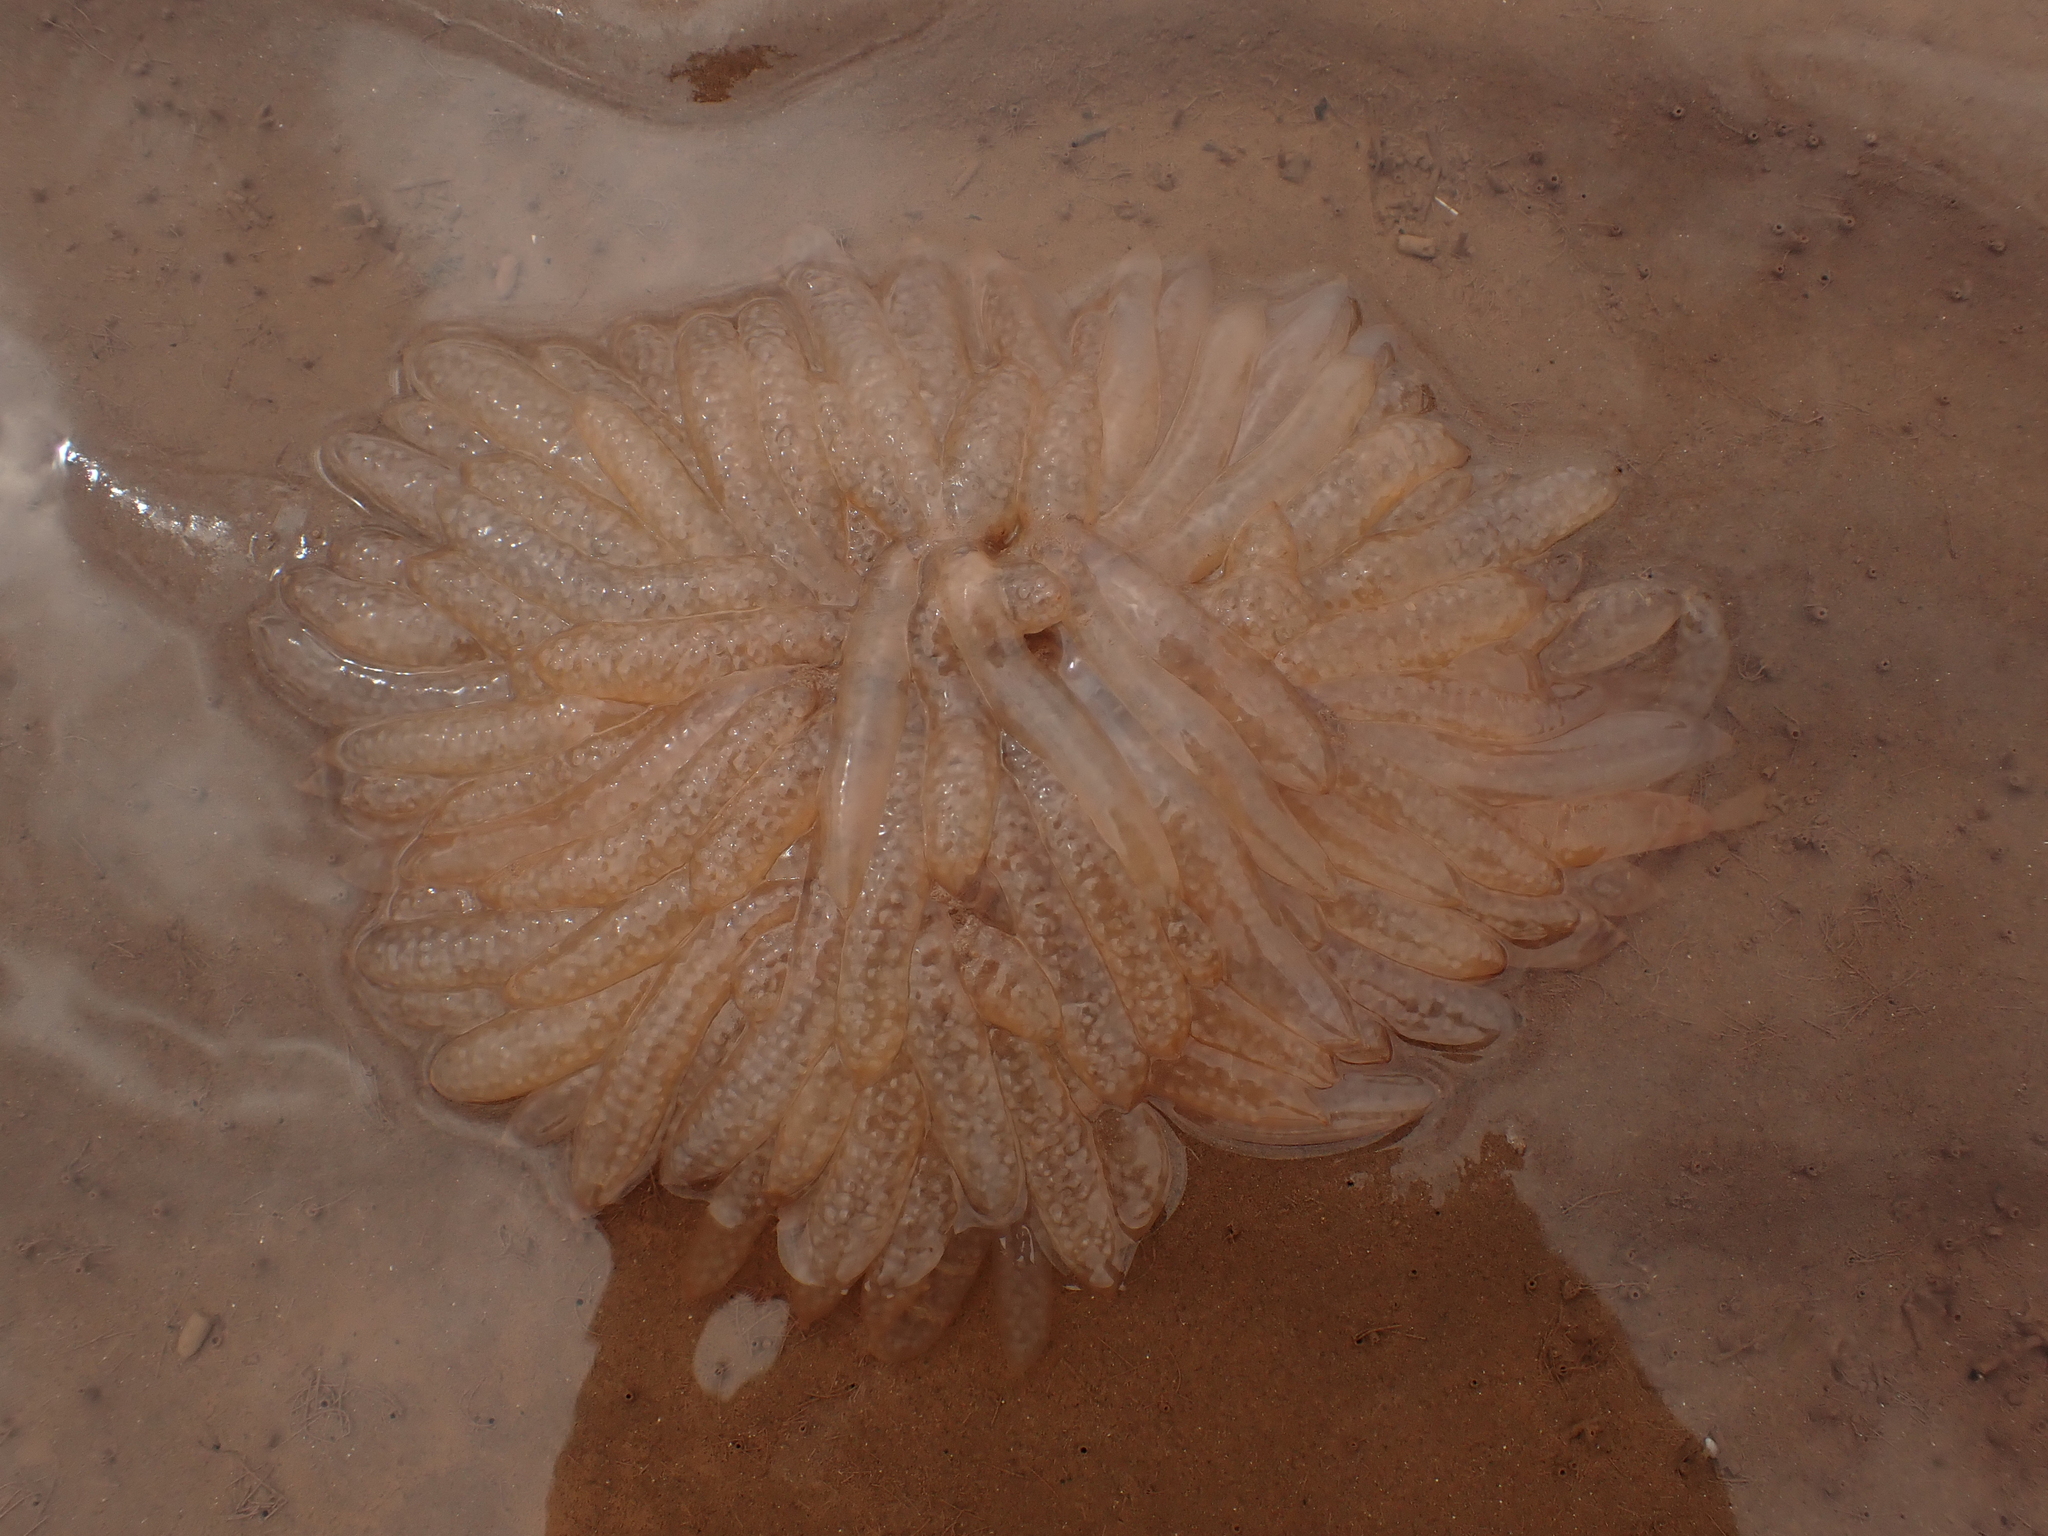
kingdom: Animalia
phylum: Mollusca
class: Cephalopoda
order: Myopsida
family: Loliginidae
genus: Doryteuthis
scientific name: Doryteuthis pealeii
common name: Long-finned inshore squid
